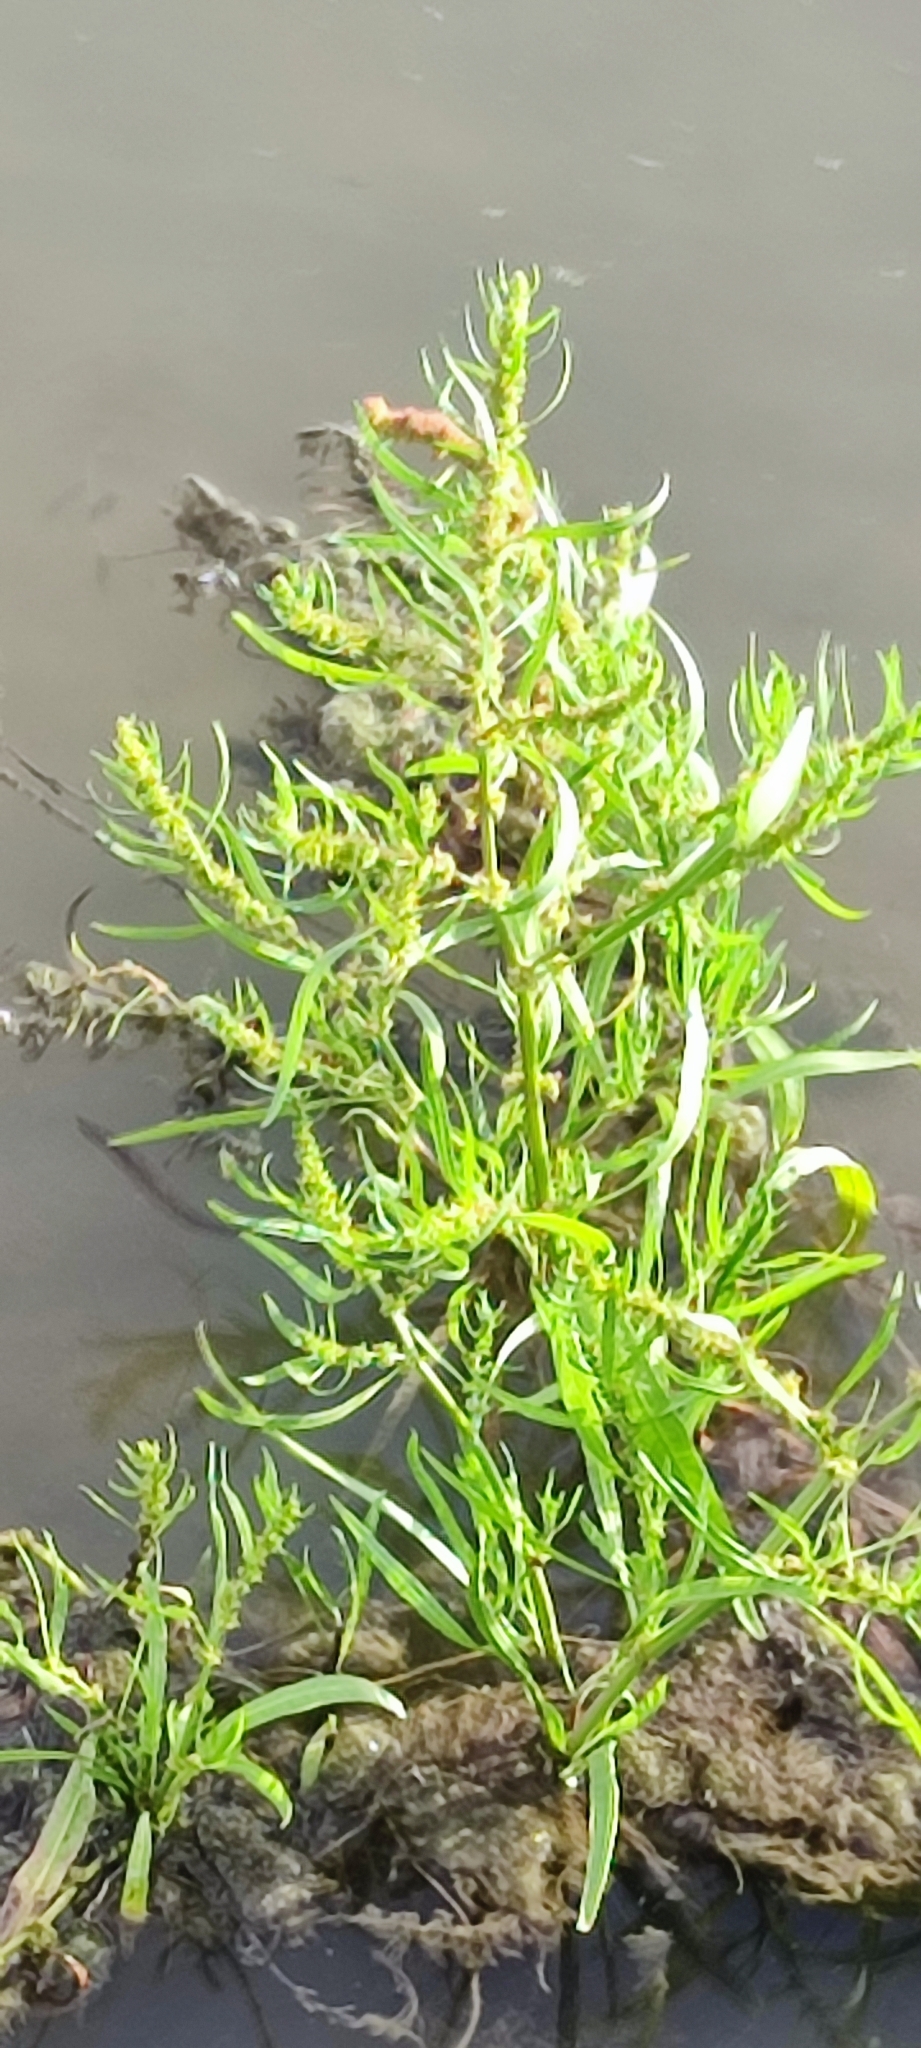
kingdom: Plantae
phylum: Tracheophyta
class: Magnoliopsida
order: Caryophyllales
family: Polygonaceae
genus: Rumex
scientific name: Rumex maritimus
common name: Golden dock
